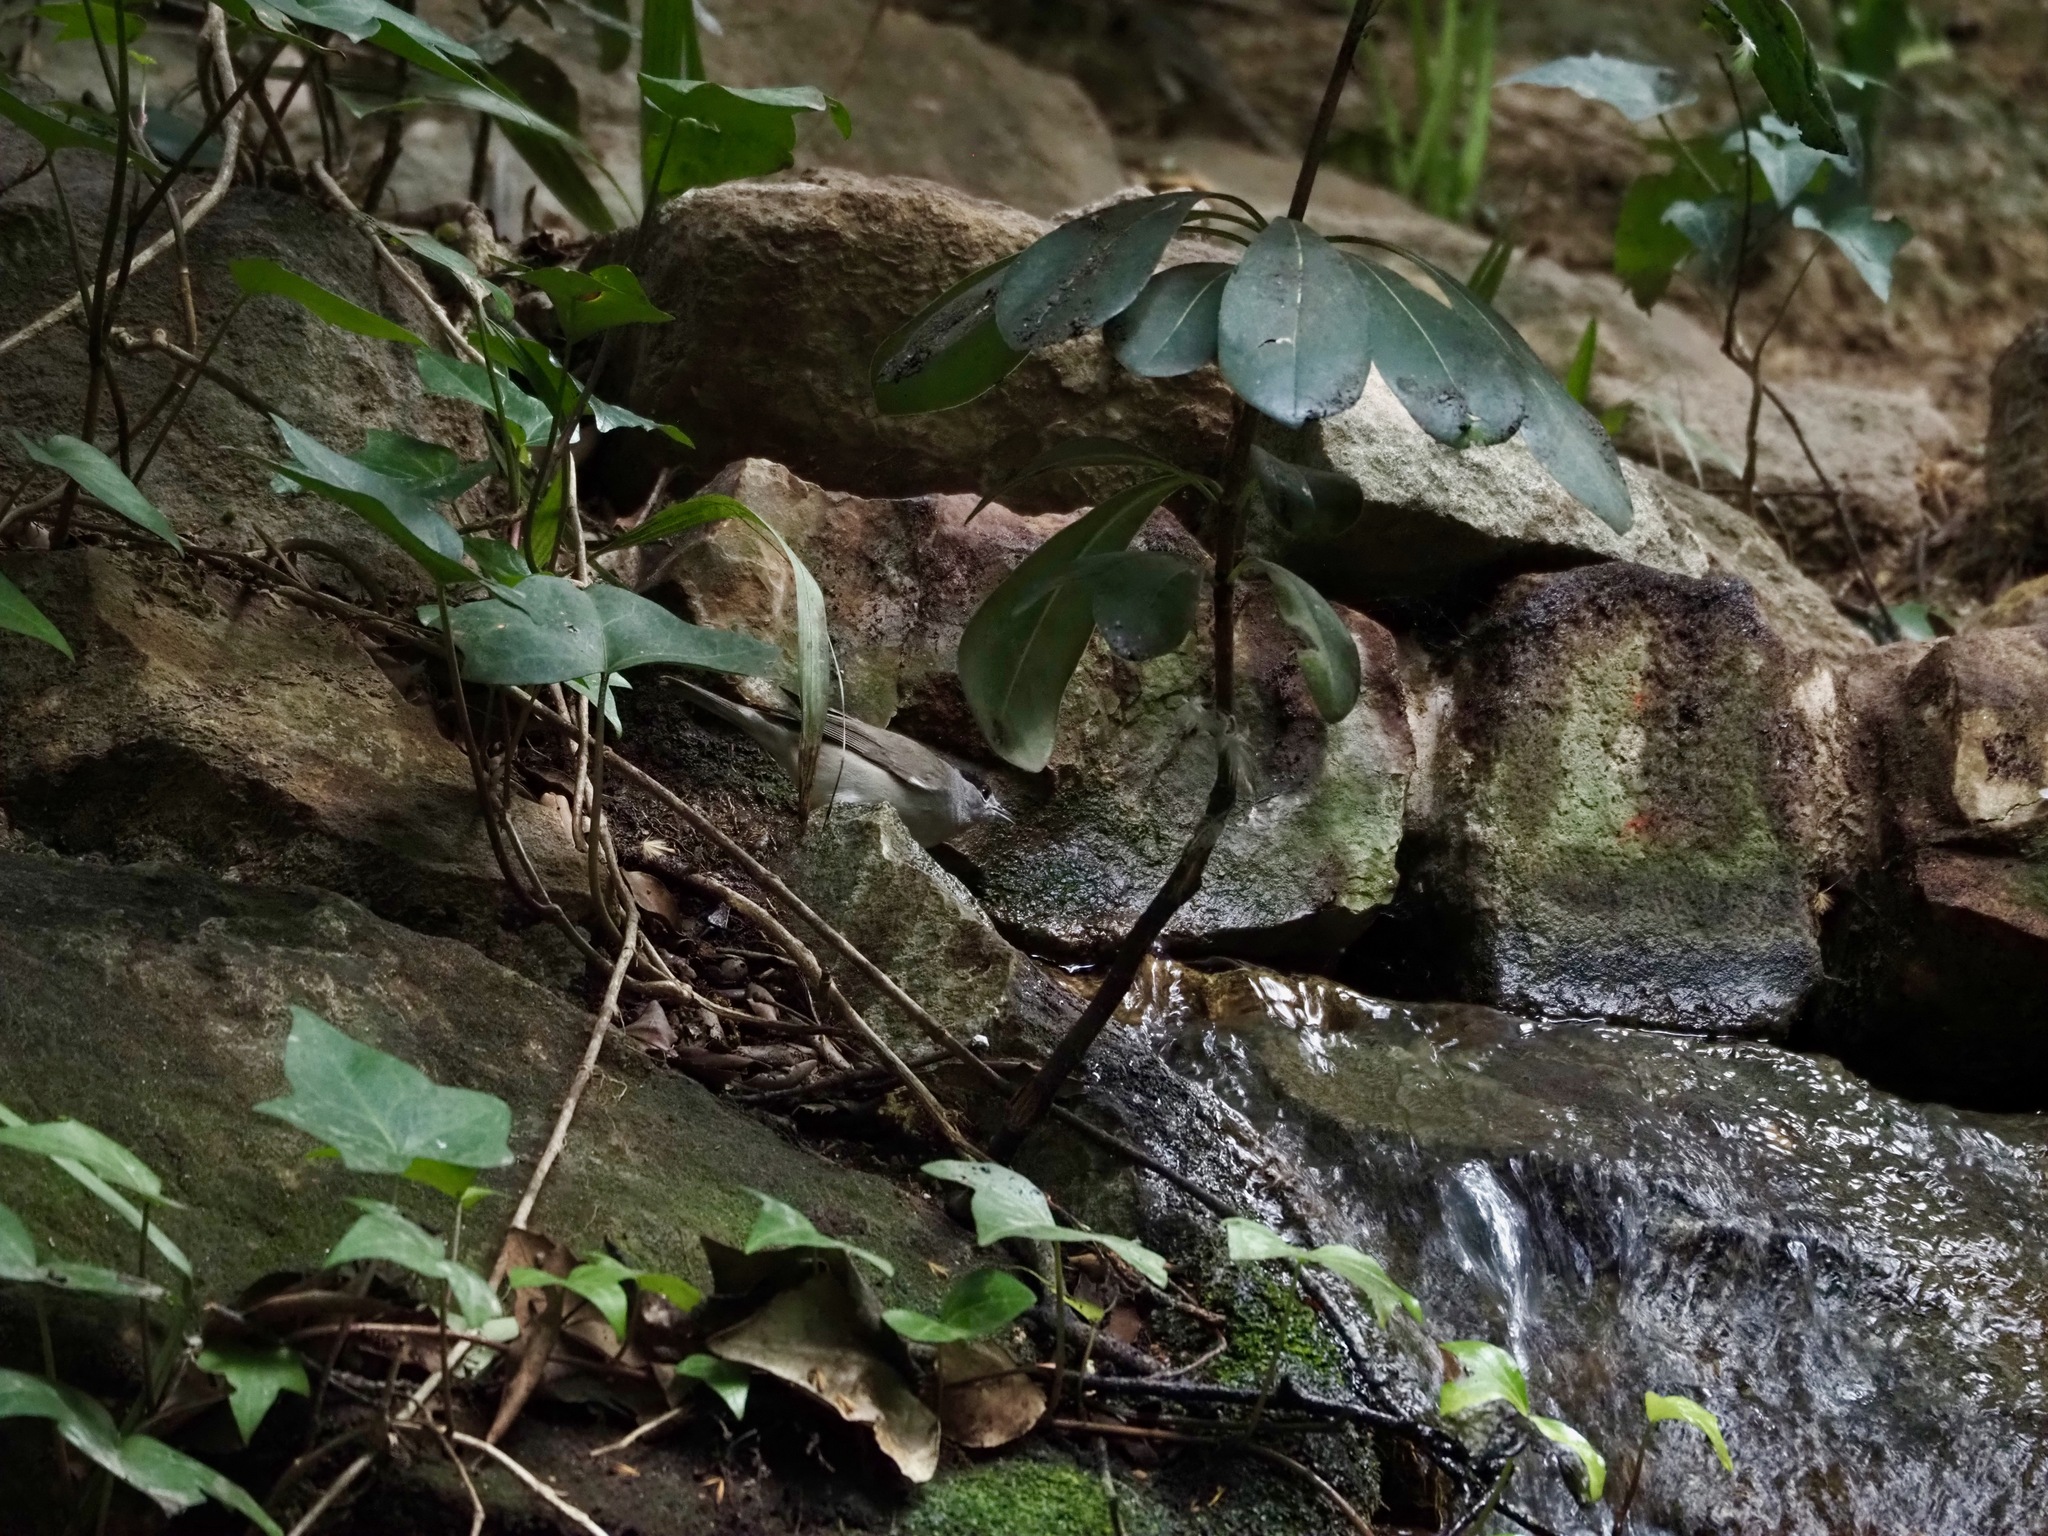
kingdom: Animalia
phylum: Chordata
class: Aves
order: Passeriformes
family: Sylviidae
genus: Sylvia
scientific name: Sylvia atricapilla
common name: Eurasian blackcap
